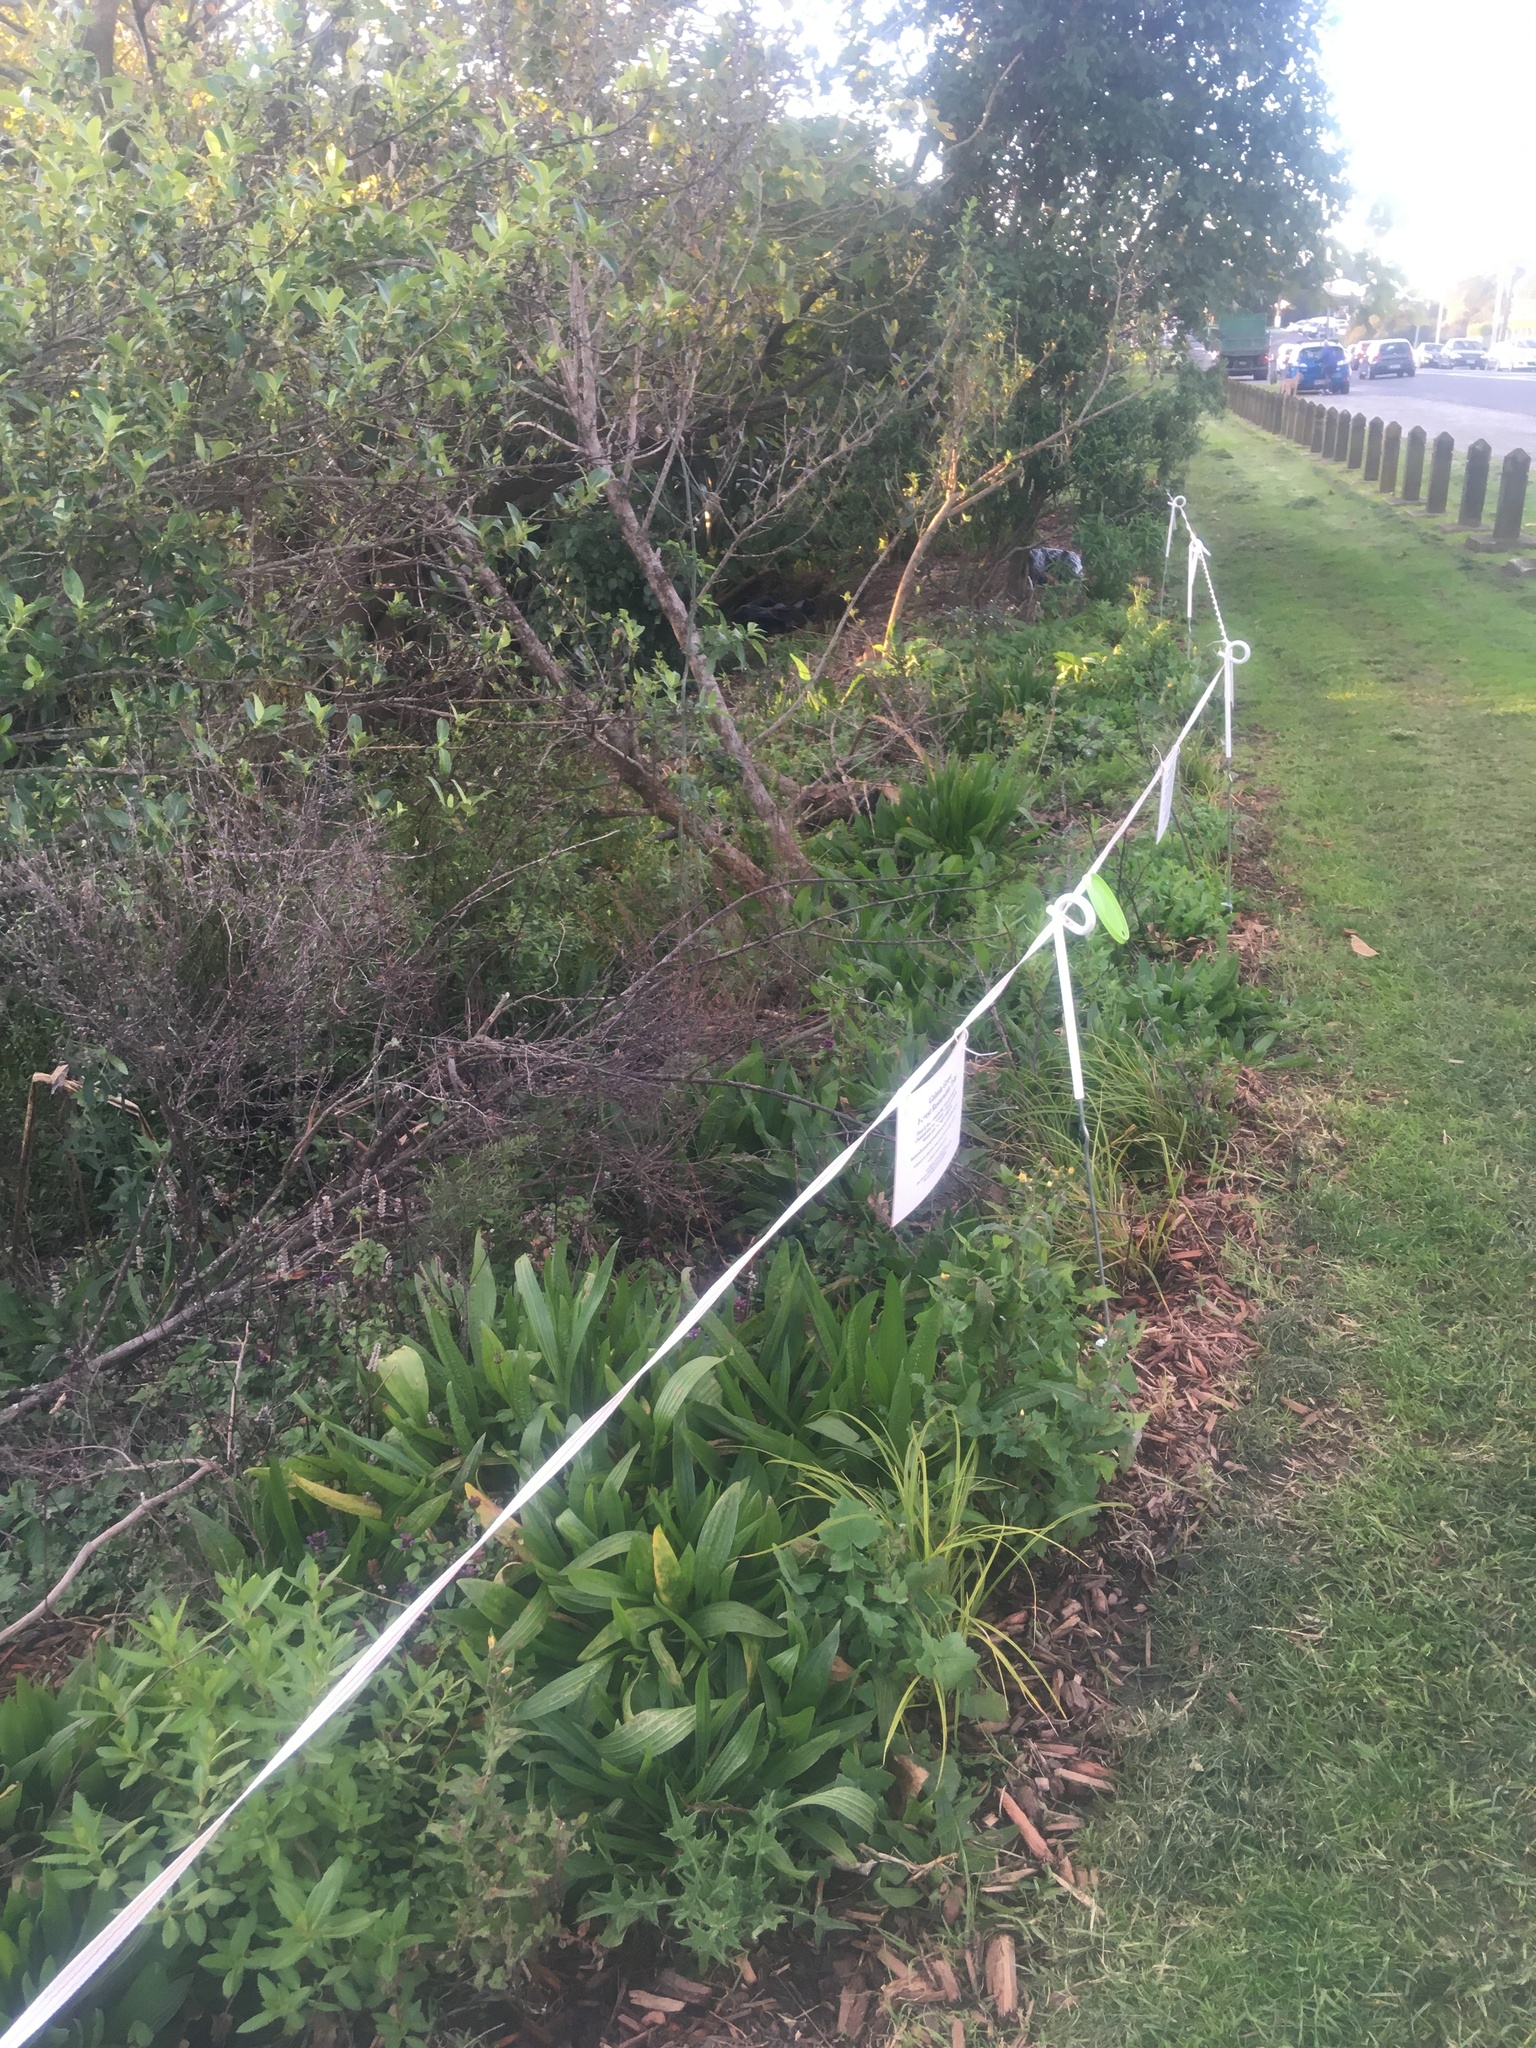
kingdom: Plantae
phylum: Tracheophyta
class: Magnoliopsida
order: Gentianales
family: Rubiaceae
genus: Coprosma
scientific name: Coprosma robusta
